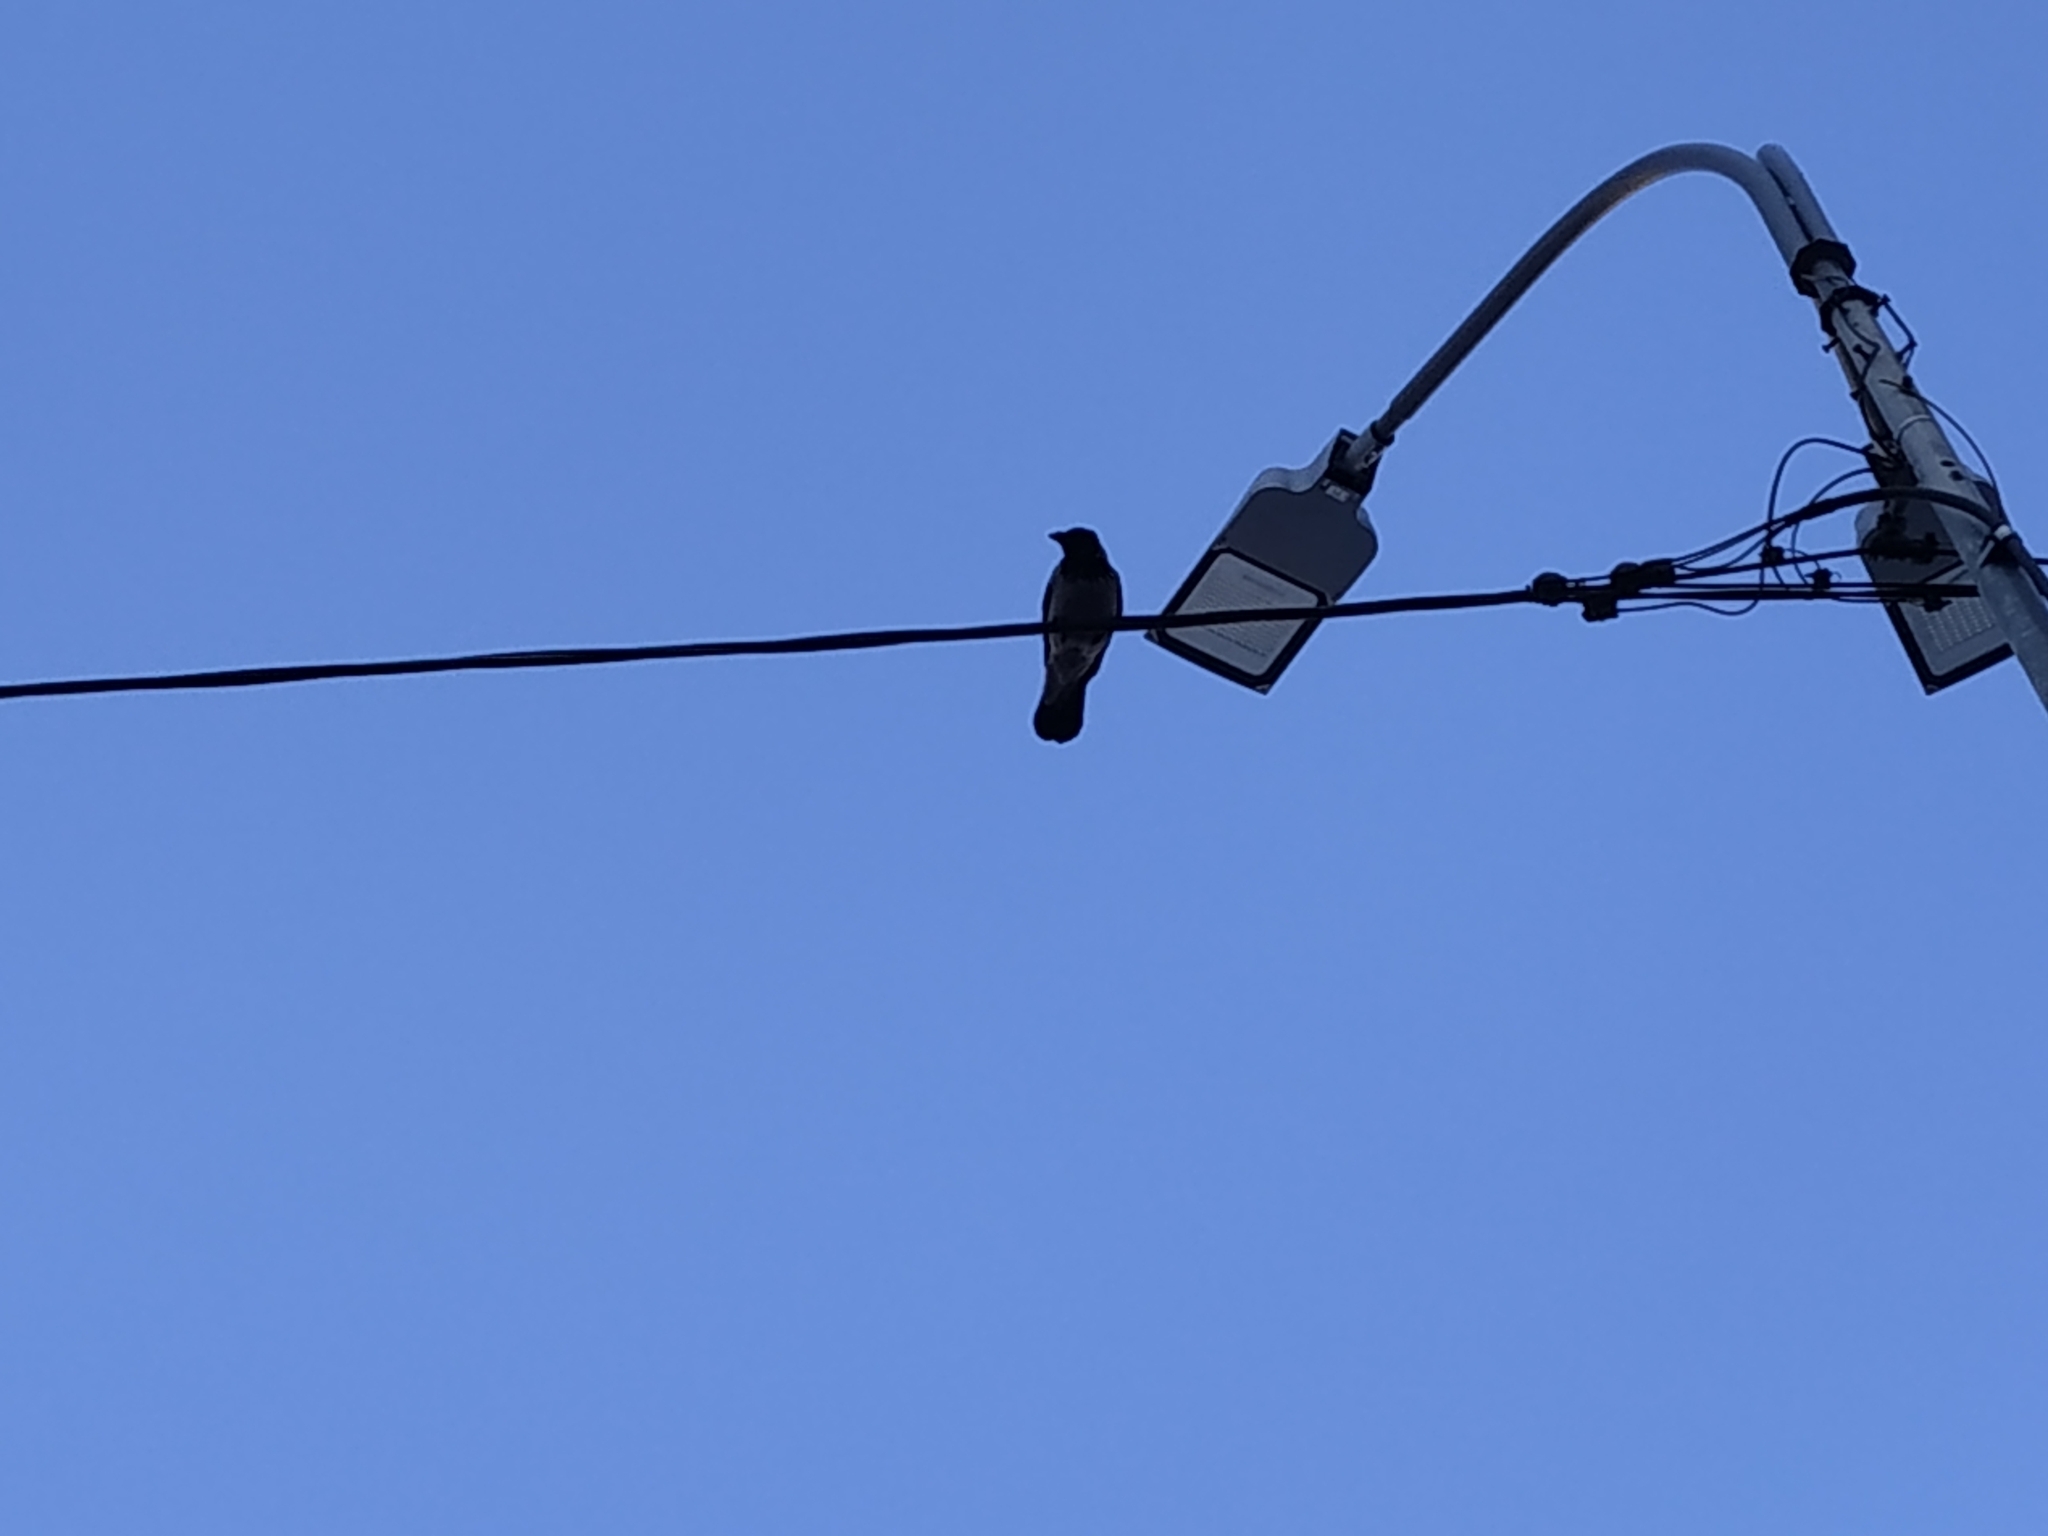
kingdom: Animalia
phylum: Chordata
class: Aves
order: Passeriformes
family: Corvidae
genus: Corvus
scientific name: Corvus cornix
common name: Hooded crow
